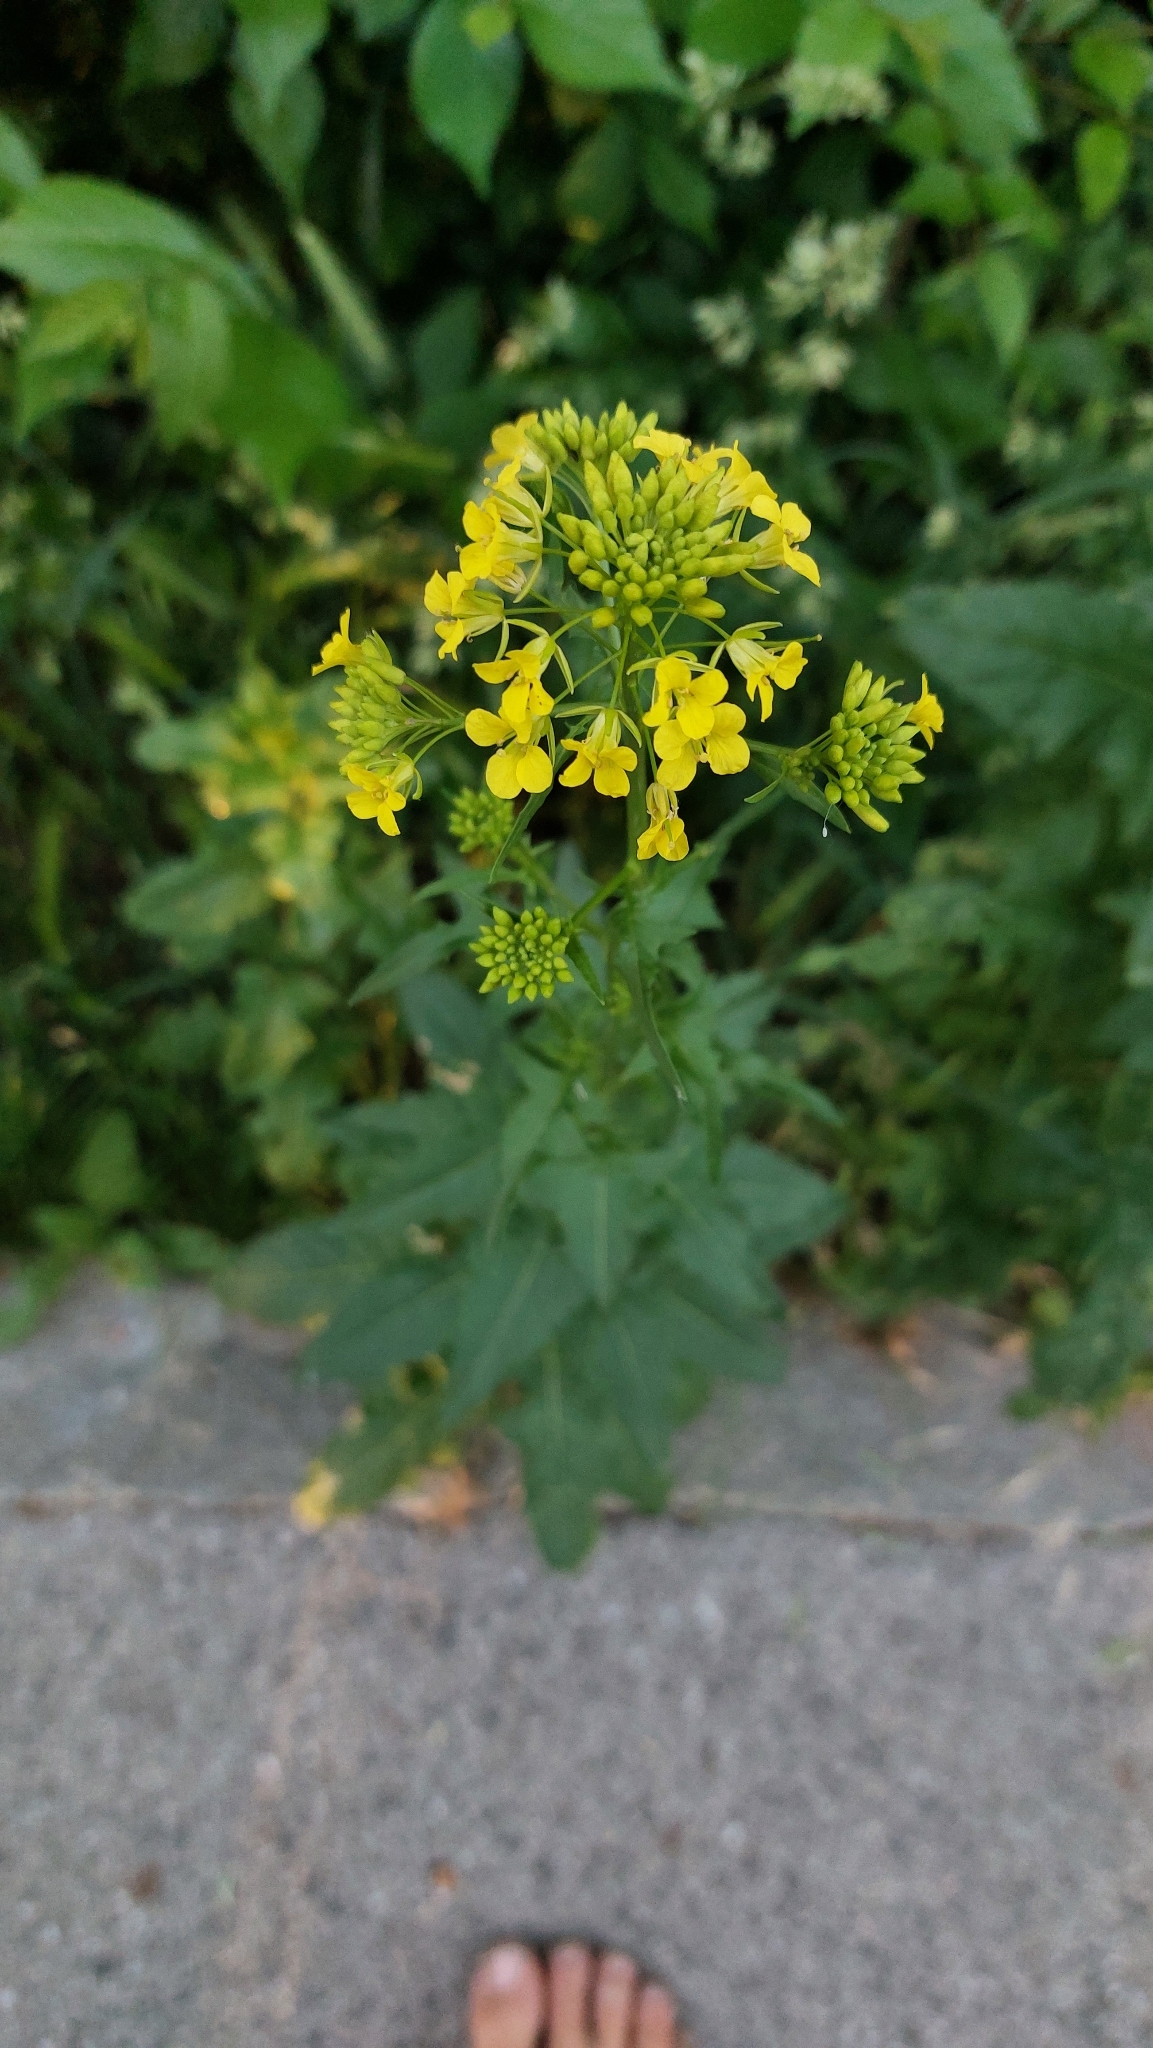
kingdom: Plantae
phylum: Tracheophyta
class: Magnoliopsida
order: Brassicales
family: Brassicaceae
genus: Sisymbrium
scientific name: Sisymbrium loeselii
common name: False london-rocket
